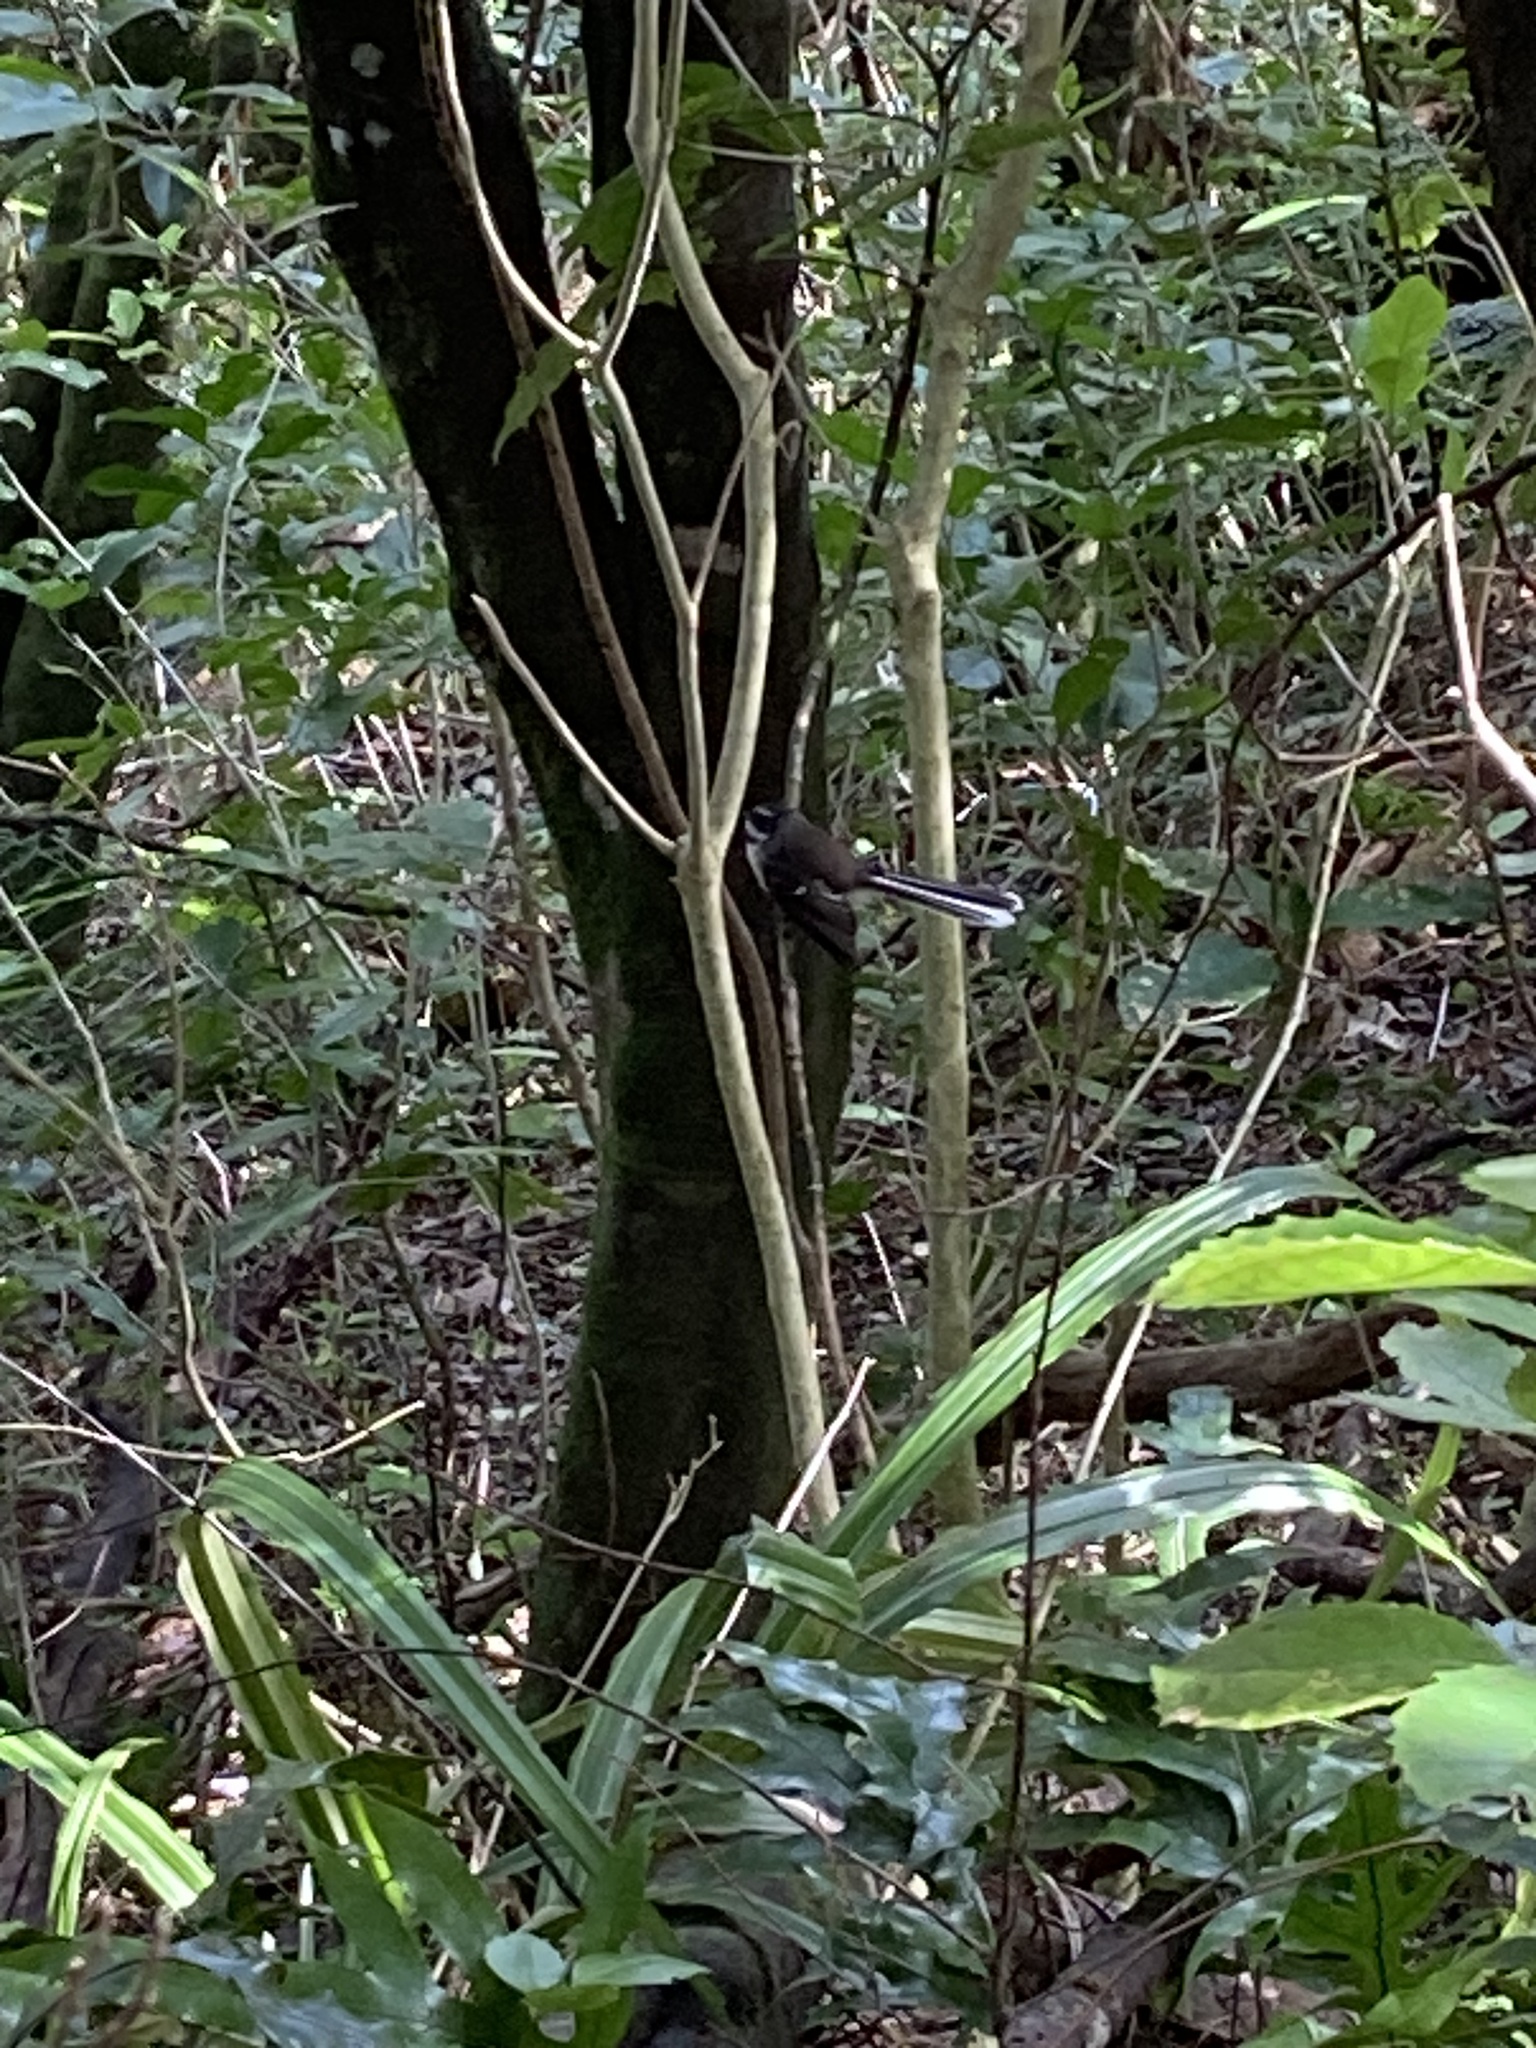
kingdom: Animalia
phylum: Chordata
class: Aves
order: Passeriformes
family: Rhipiduridae
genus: Rhipidura
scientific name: Rhipidura fuliginosa
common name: New zealand fantail
